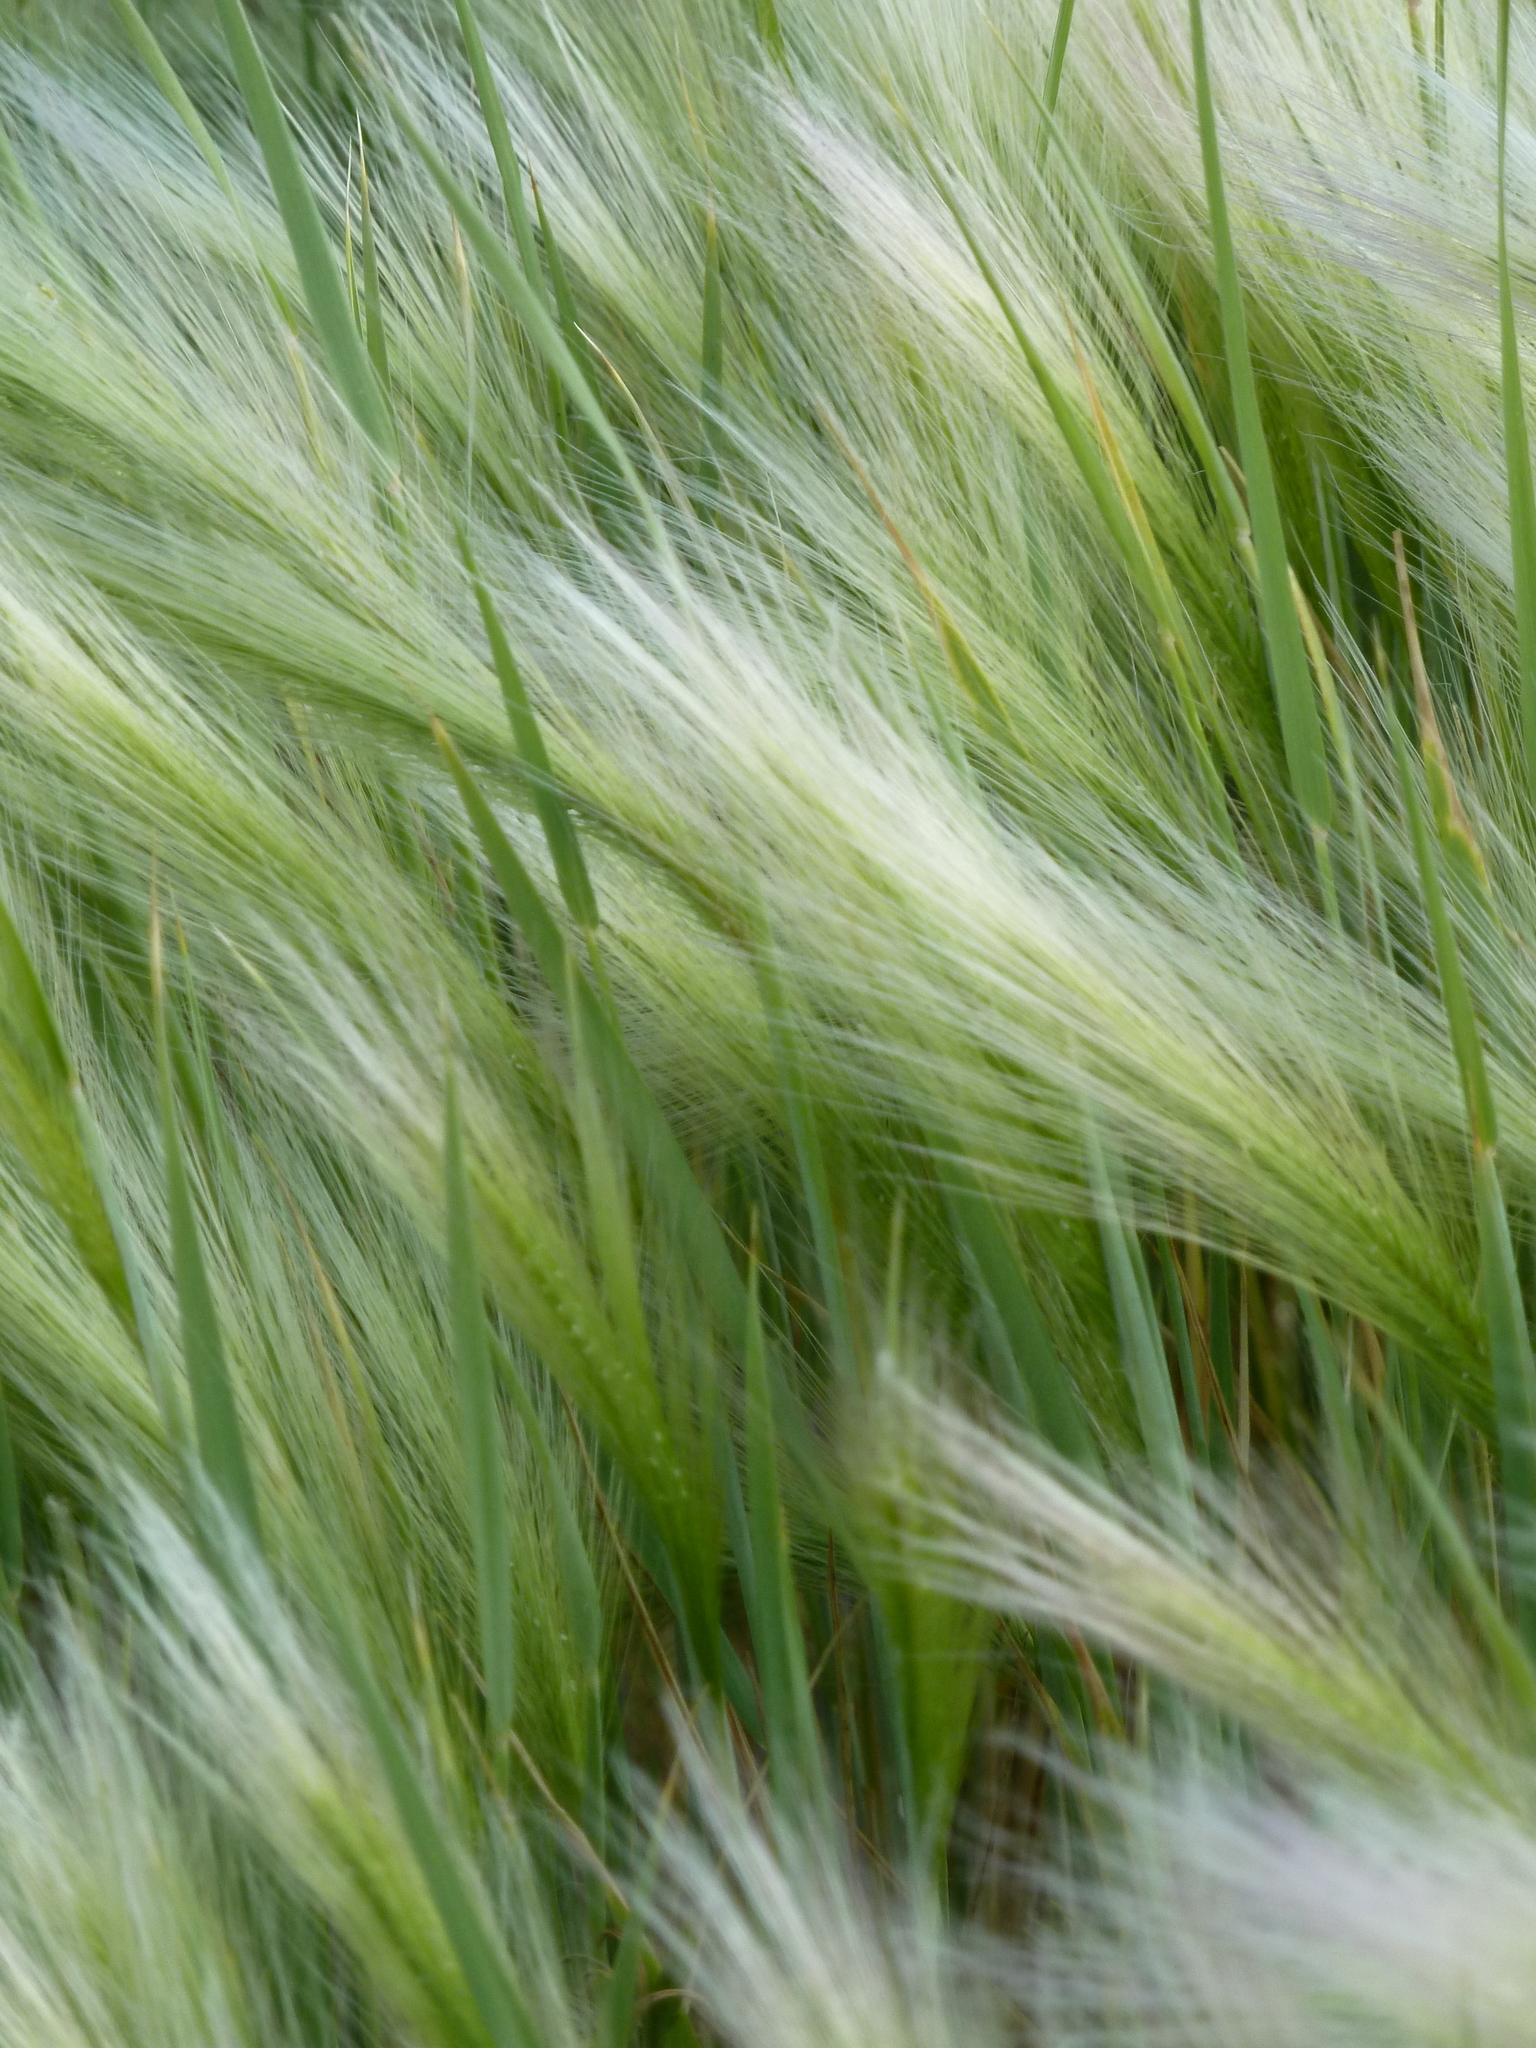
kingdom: Plantae
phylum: Tracheophyta
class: Liliopsida
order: Poales
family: Poaceae
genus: Hordeum
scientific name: Hordeum jubatum
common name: Foxtail barley
